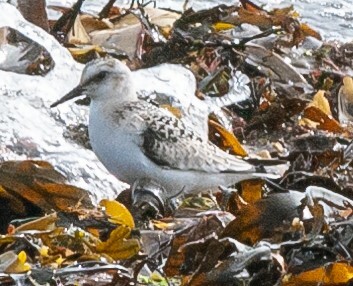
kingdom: Animalia
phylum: Chordata
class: Aves
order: Charadriiformes
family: Scolopacidae
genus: Calidris
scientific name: Calidris alba
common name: Sanderling
